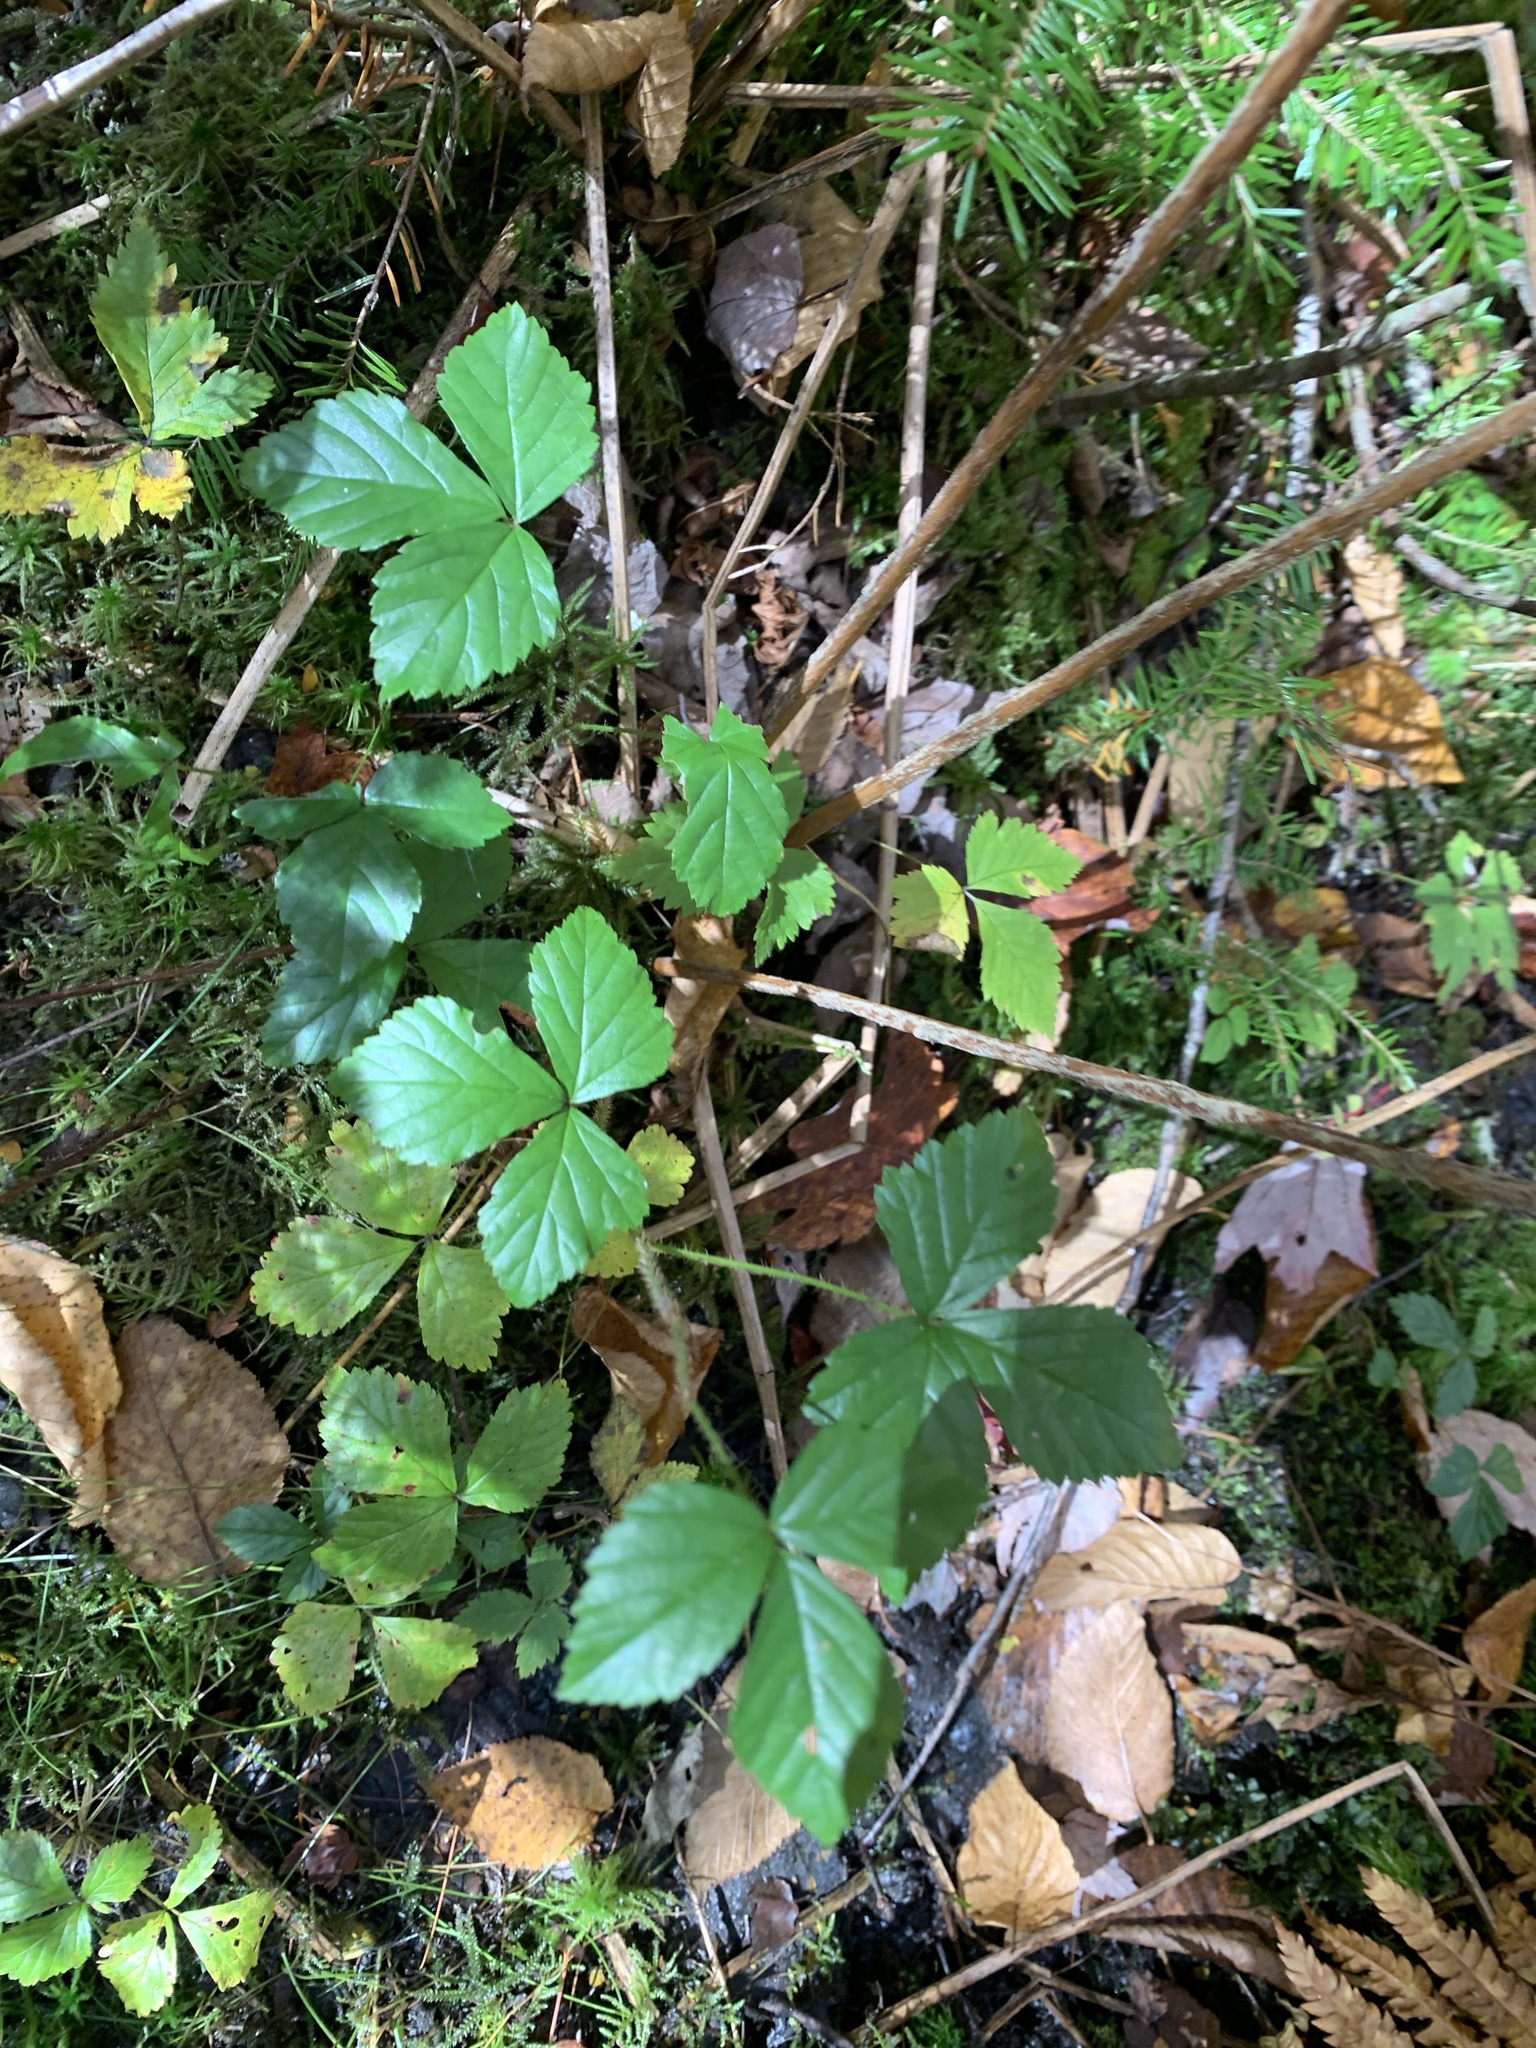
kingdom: Plantae
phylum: Tracheophyta
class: Magnoliopsida
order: Rosales
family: Rosaceae
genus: Rubus
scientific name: Rubus hispidus
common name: Running blackberry
